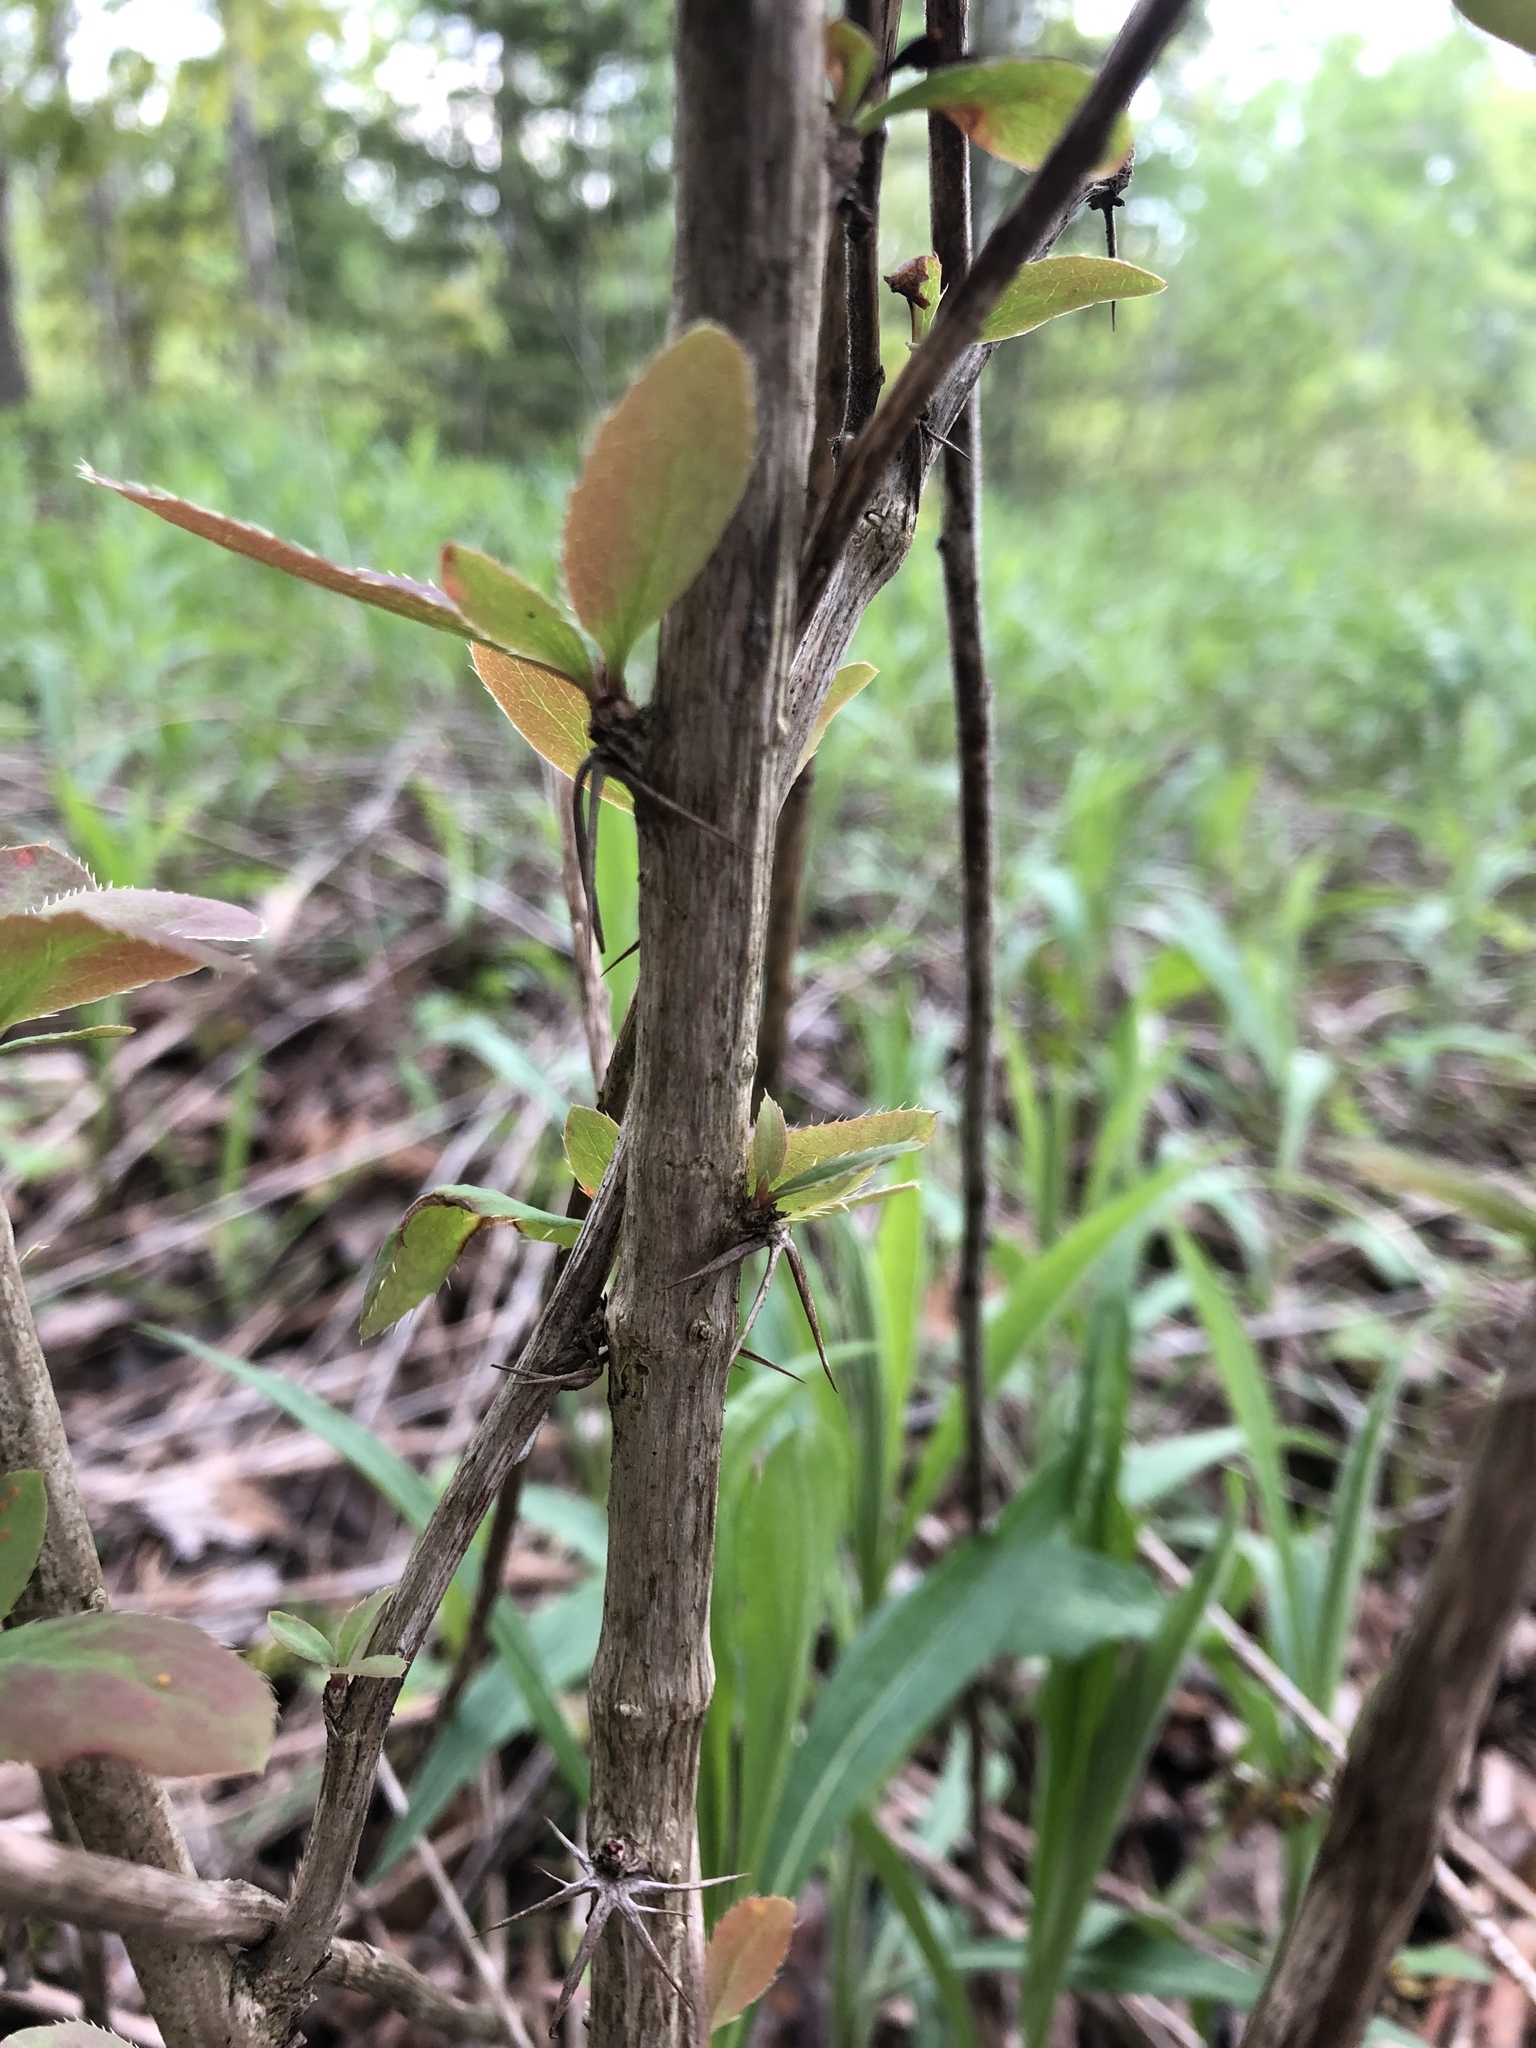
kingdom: Plantae
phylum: Tracheophyta
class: Magnoliopsida
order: Ranunculales
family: Berberidaceae
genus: Berberis
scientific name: Berberis vulgaris
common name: Barberry
